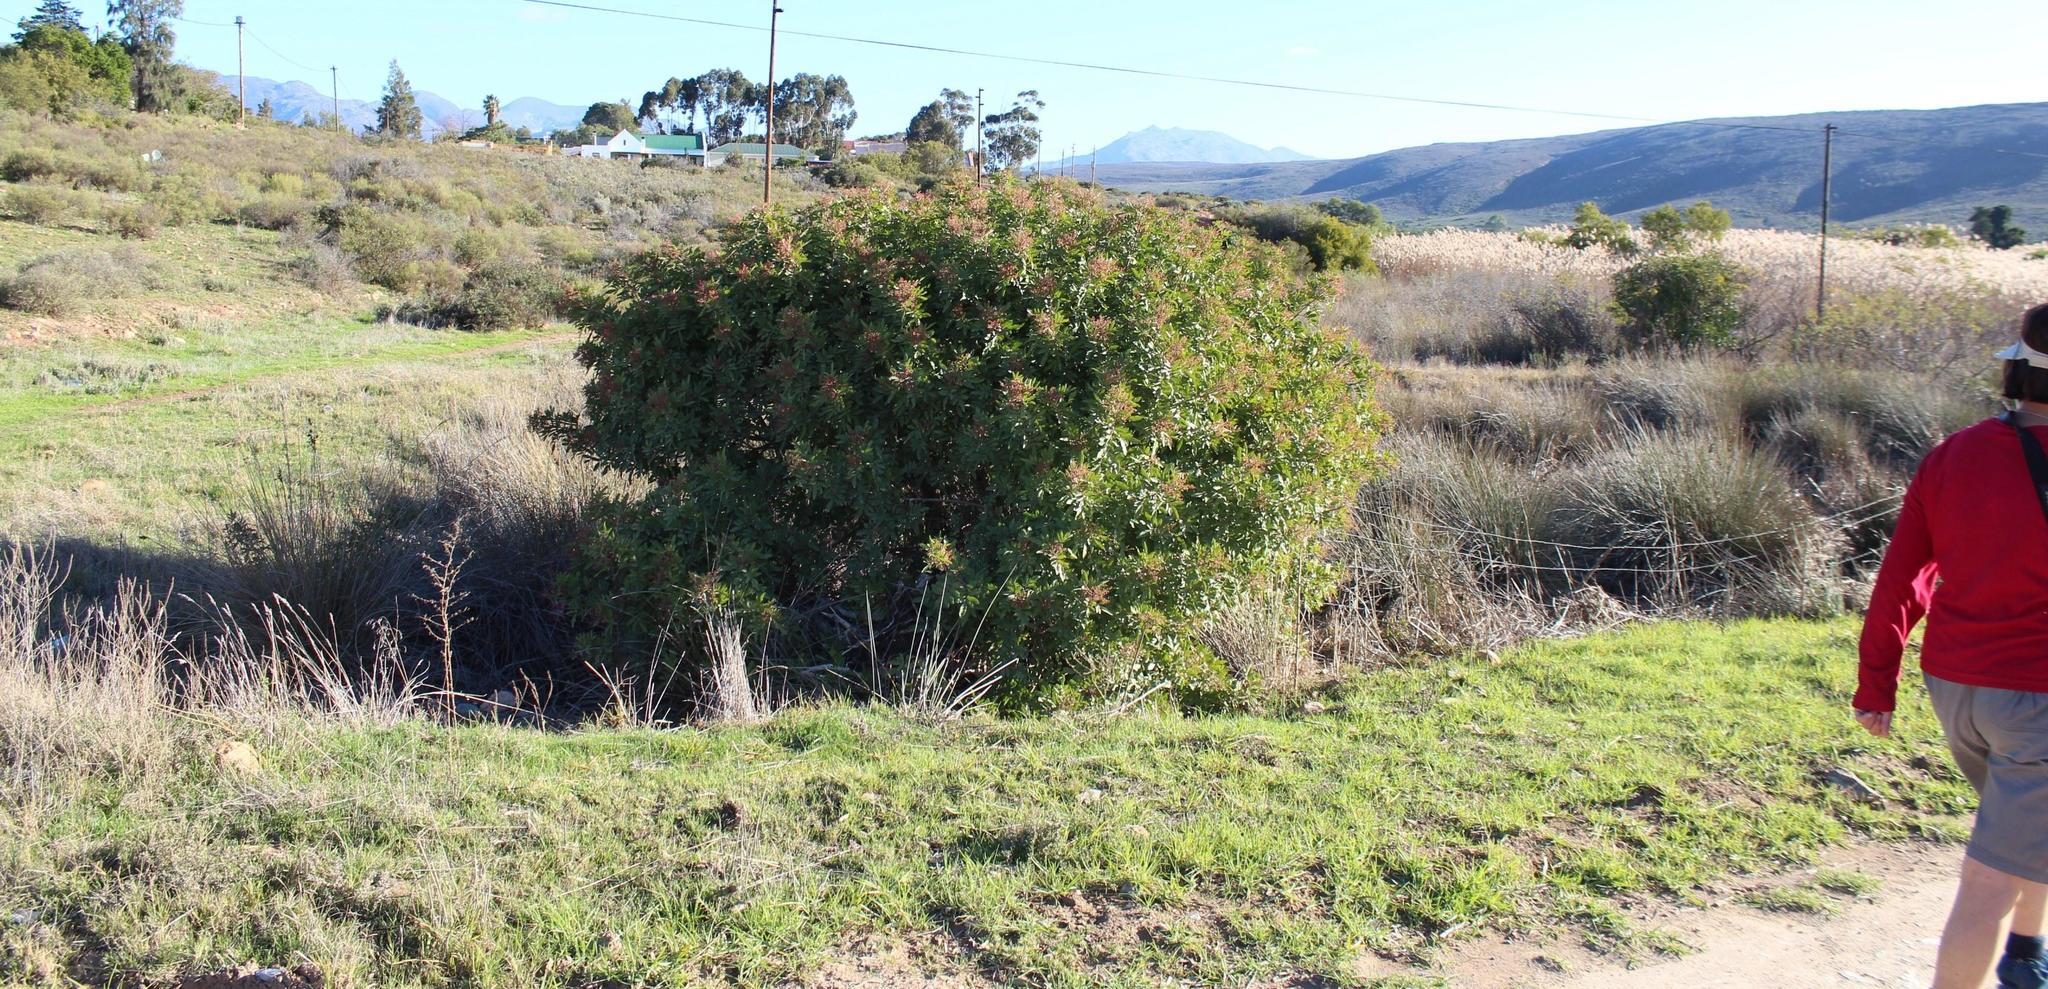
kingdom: Plantae
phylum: Tracheophyta
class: Magnoliopsida
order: Sapindales
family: Anacardiaceae
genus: Schinus
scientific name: Schinus terebinthifolia
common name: Brazilian peppertree
